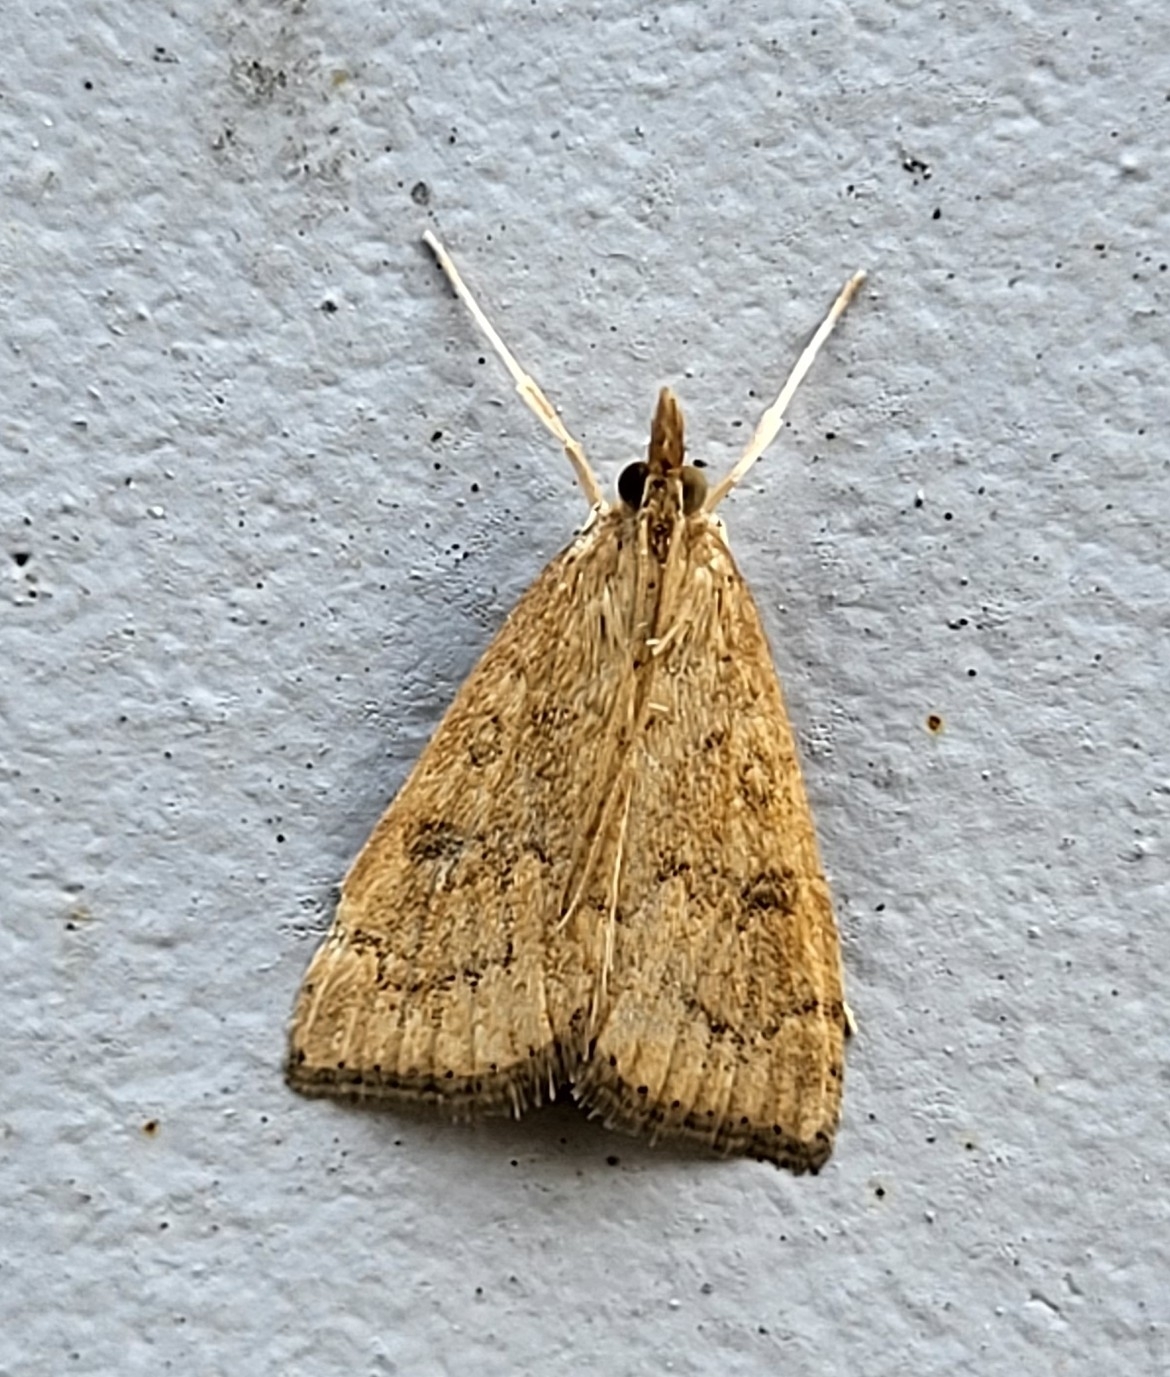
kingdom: Animalia
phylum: Arthropoda
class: Insecta
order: Lepidoptera
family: Crambidae
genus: Udea
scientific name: Udea rubigalis
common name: Celery leaftier moth
